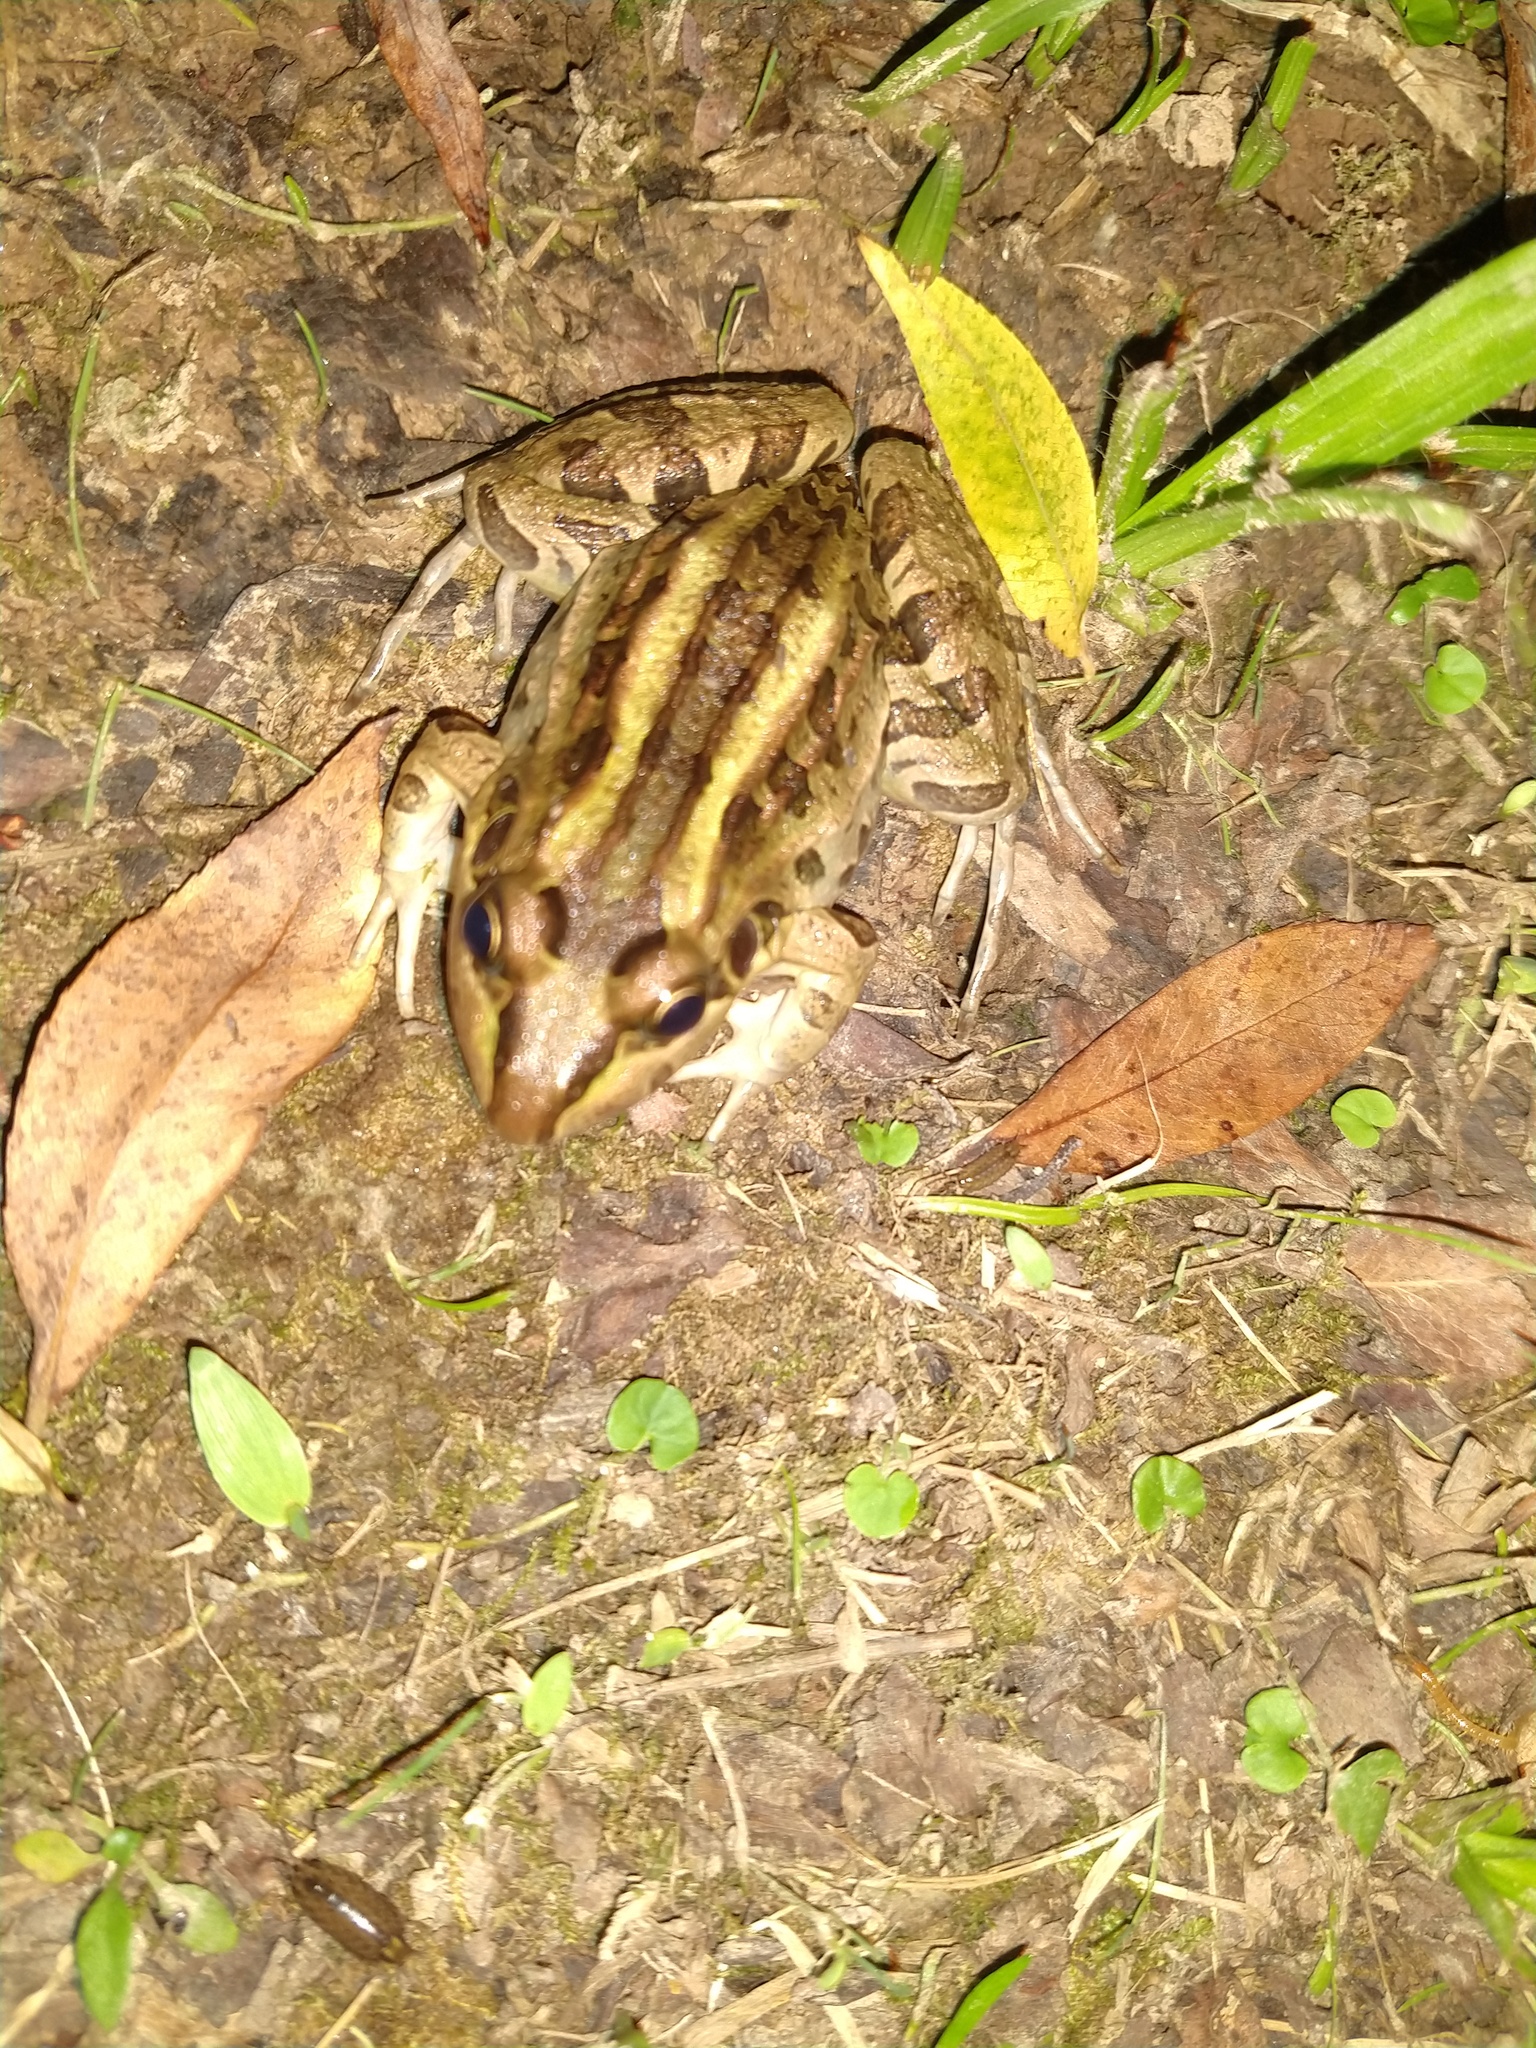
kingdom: Animalia
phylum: Chordata
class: Amphibia
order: Anura
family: Leptodactylidae
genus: Leptodactylus
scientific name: Leptodactylus luctator
